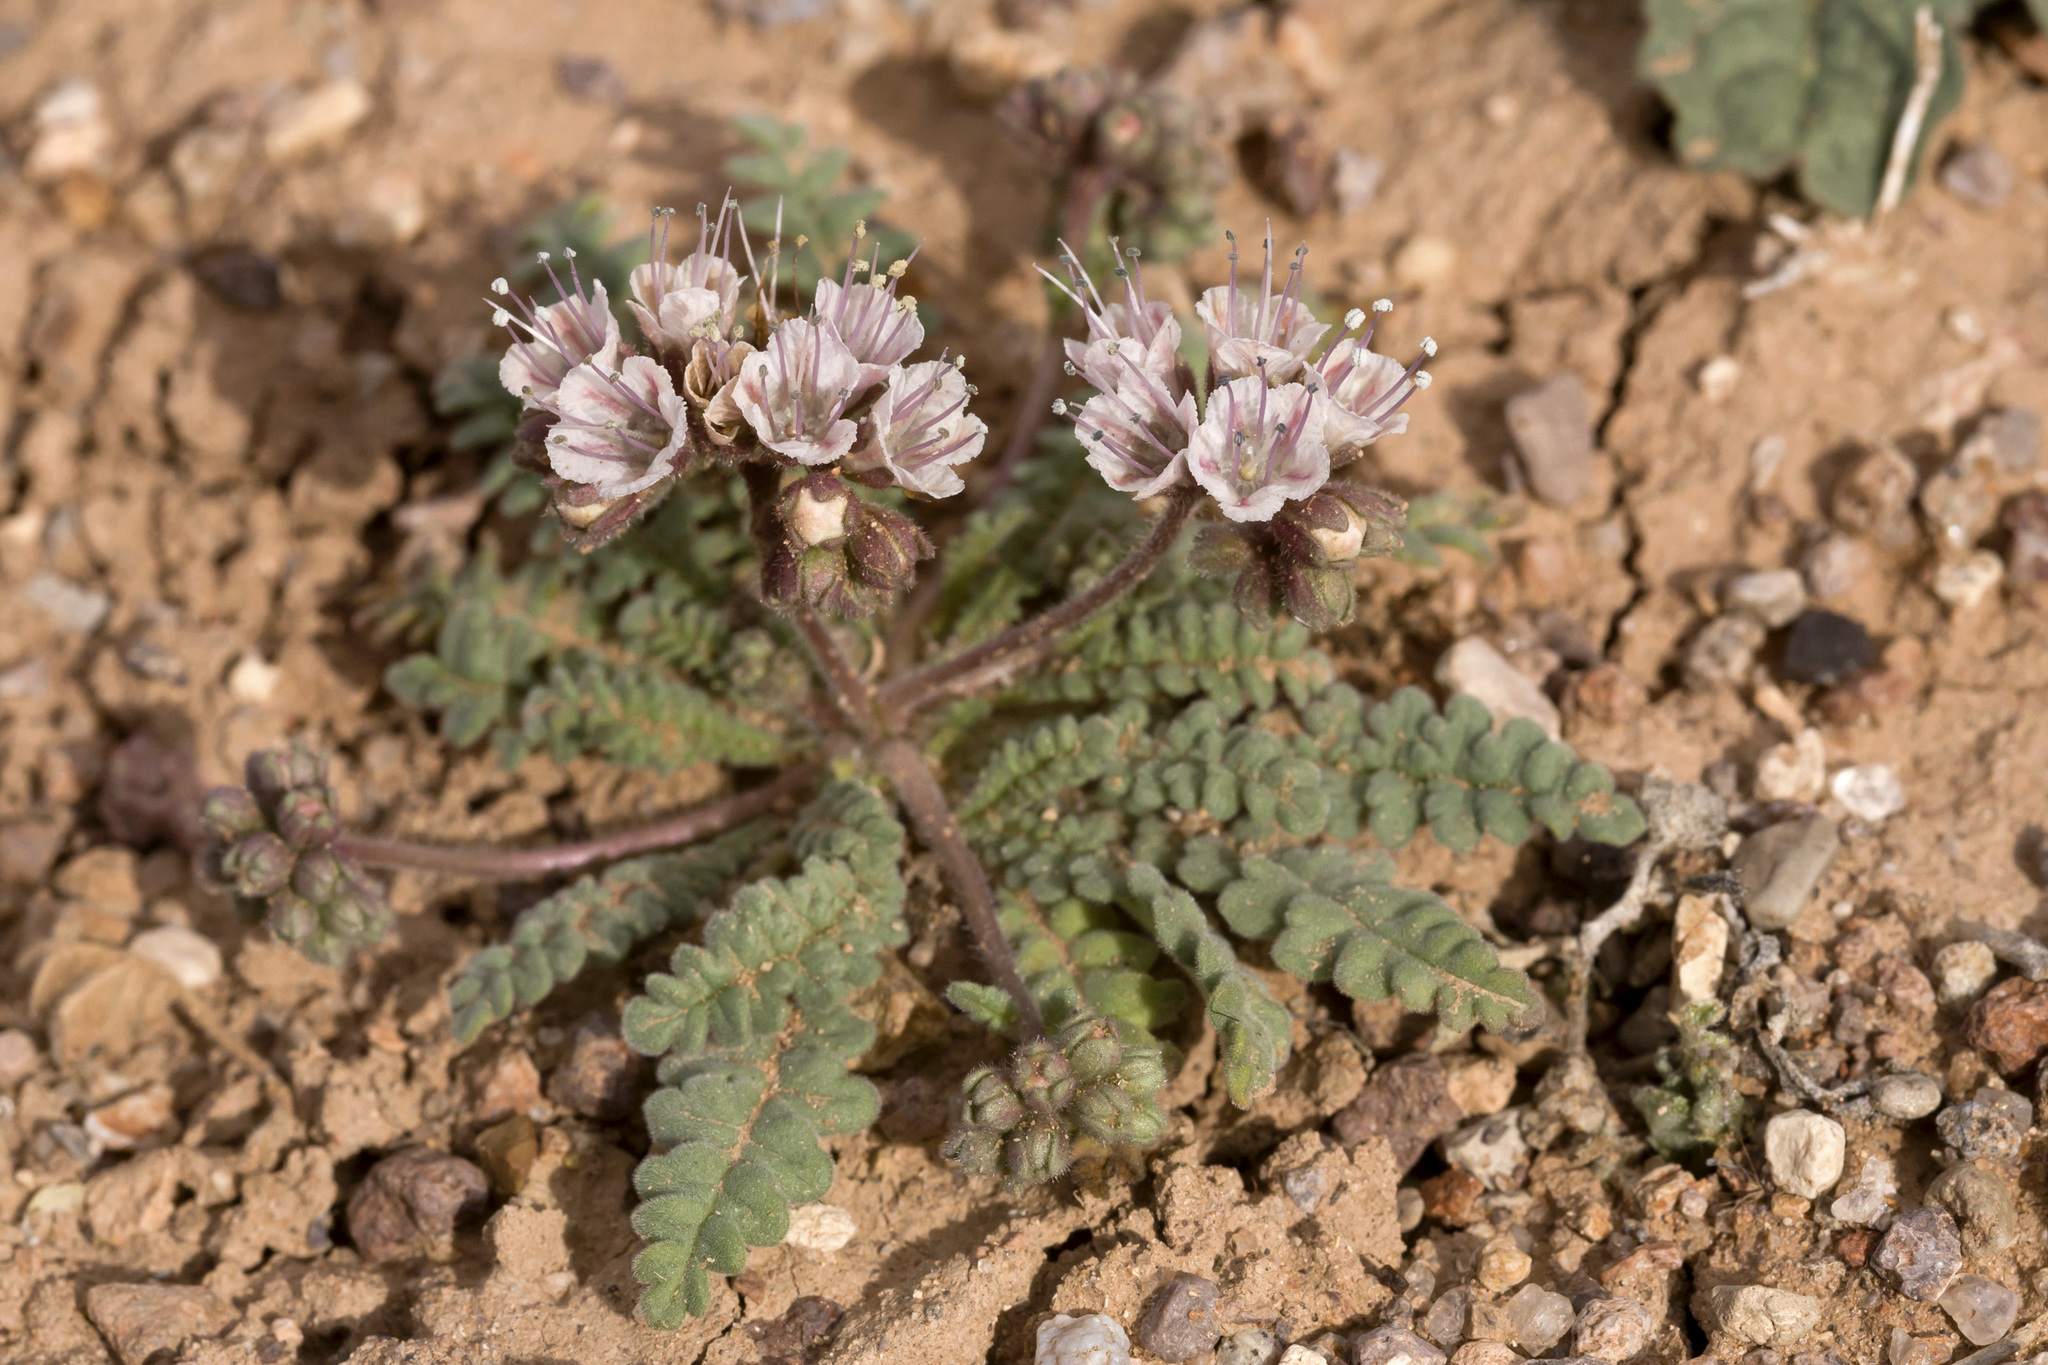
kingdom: Plantae
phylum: Tracheophyta
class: Magnoliopsida
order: Boraginales
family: Hydrophyllaceae
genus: Phacelia
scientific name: Phacelia arizonica
